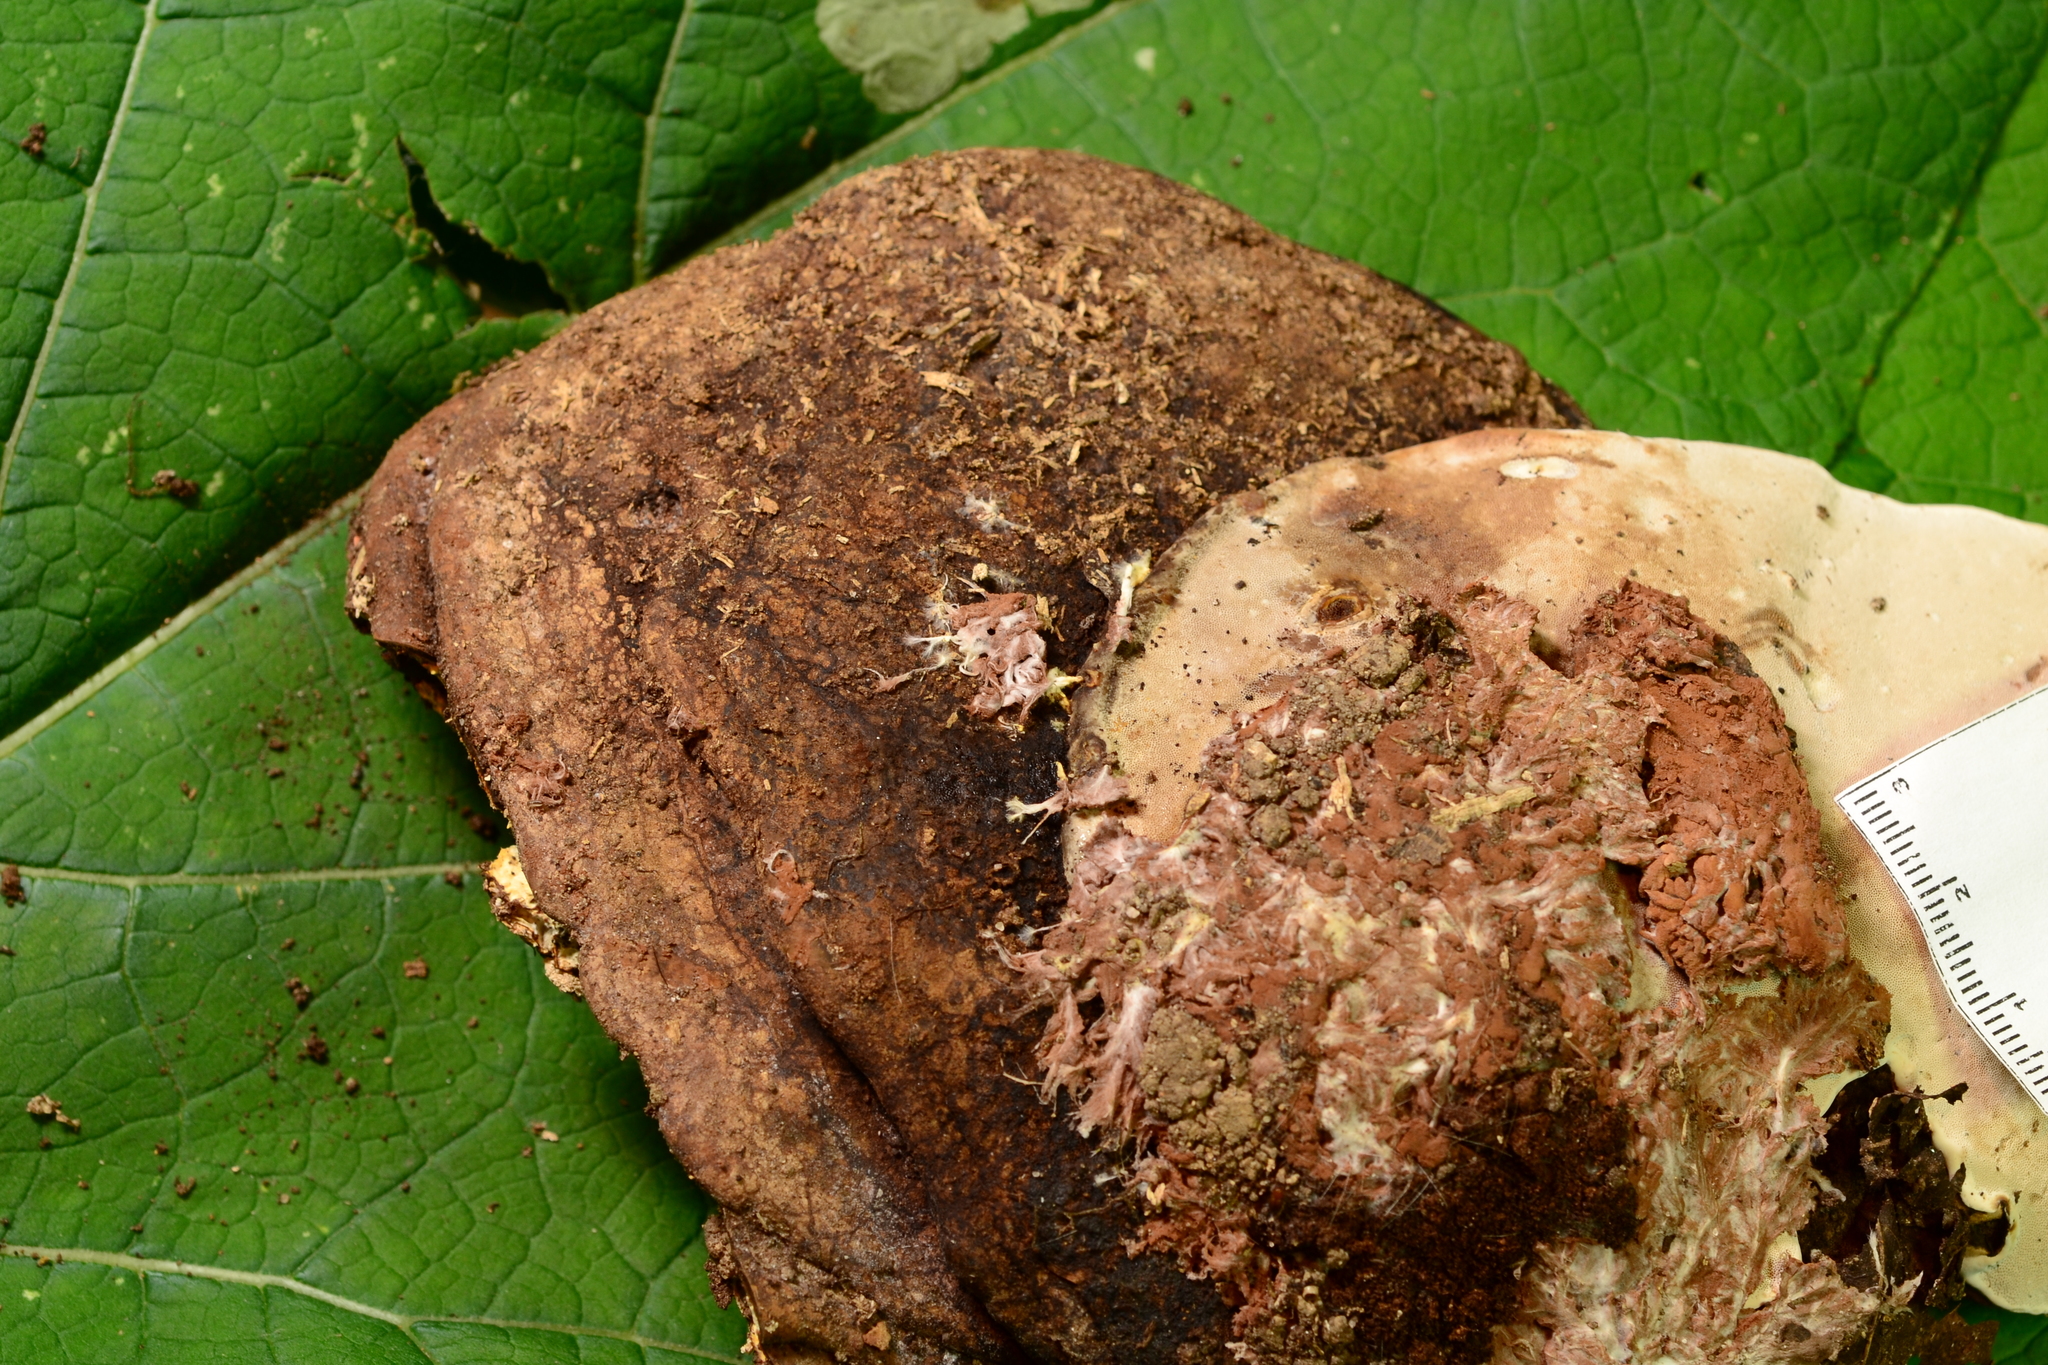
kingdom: Fungi
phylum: Ascomycota
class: Sordariomycetes
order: Hypocreales
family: Hypocreaceae
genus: Sporophagomyces
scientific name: Sporophagomyces chrysostomus
